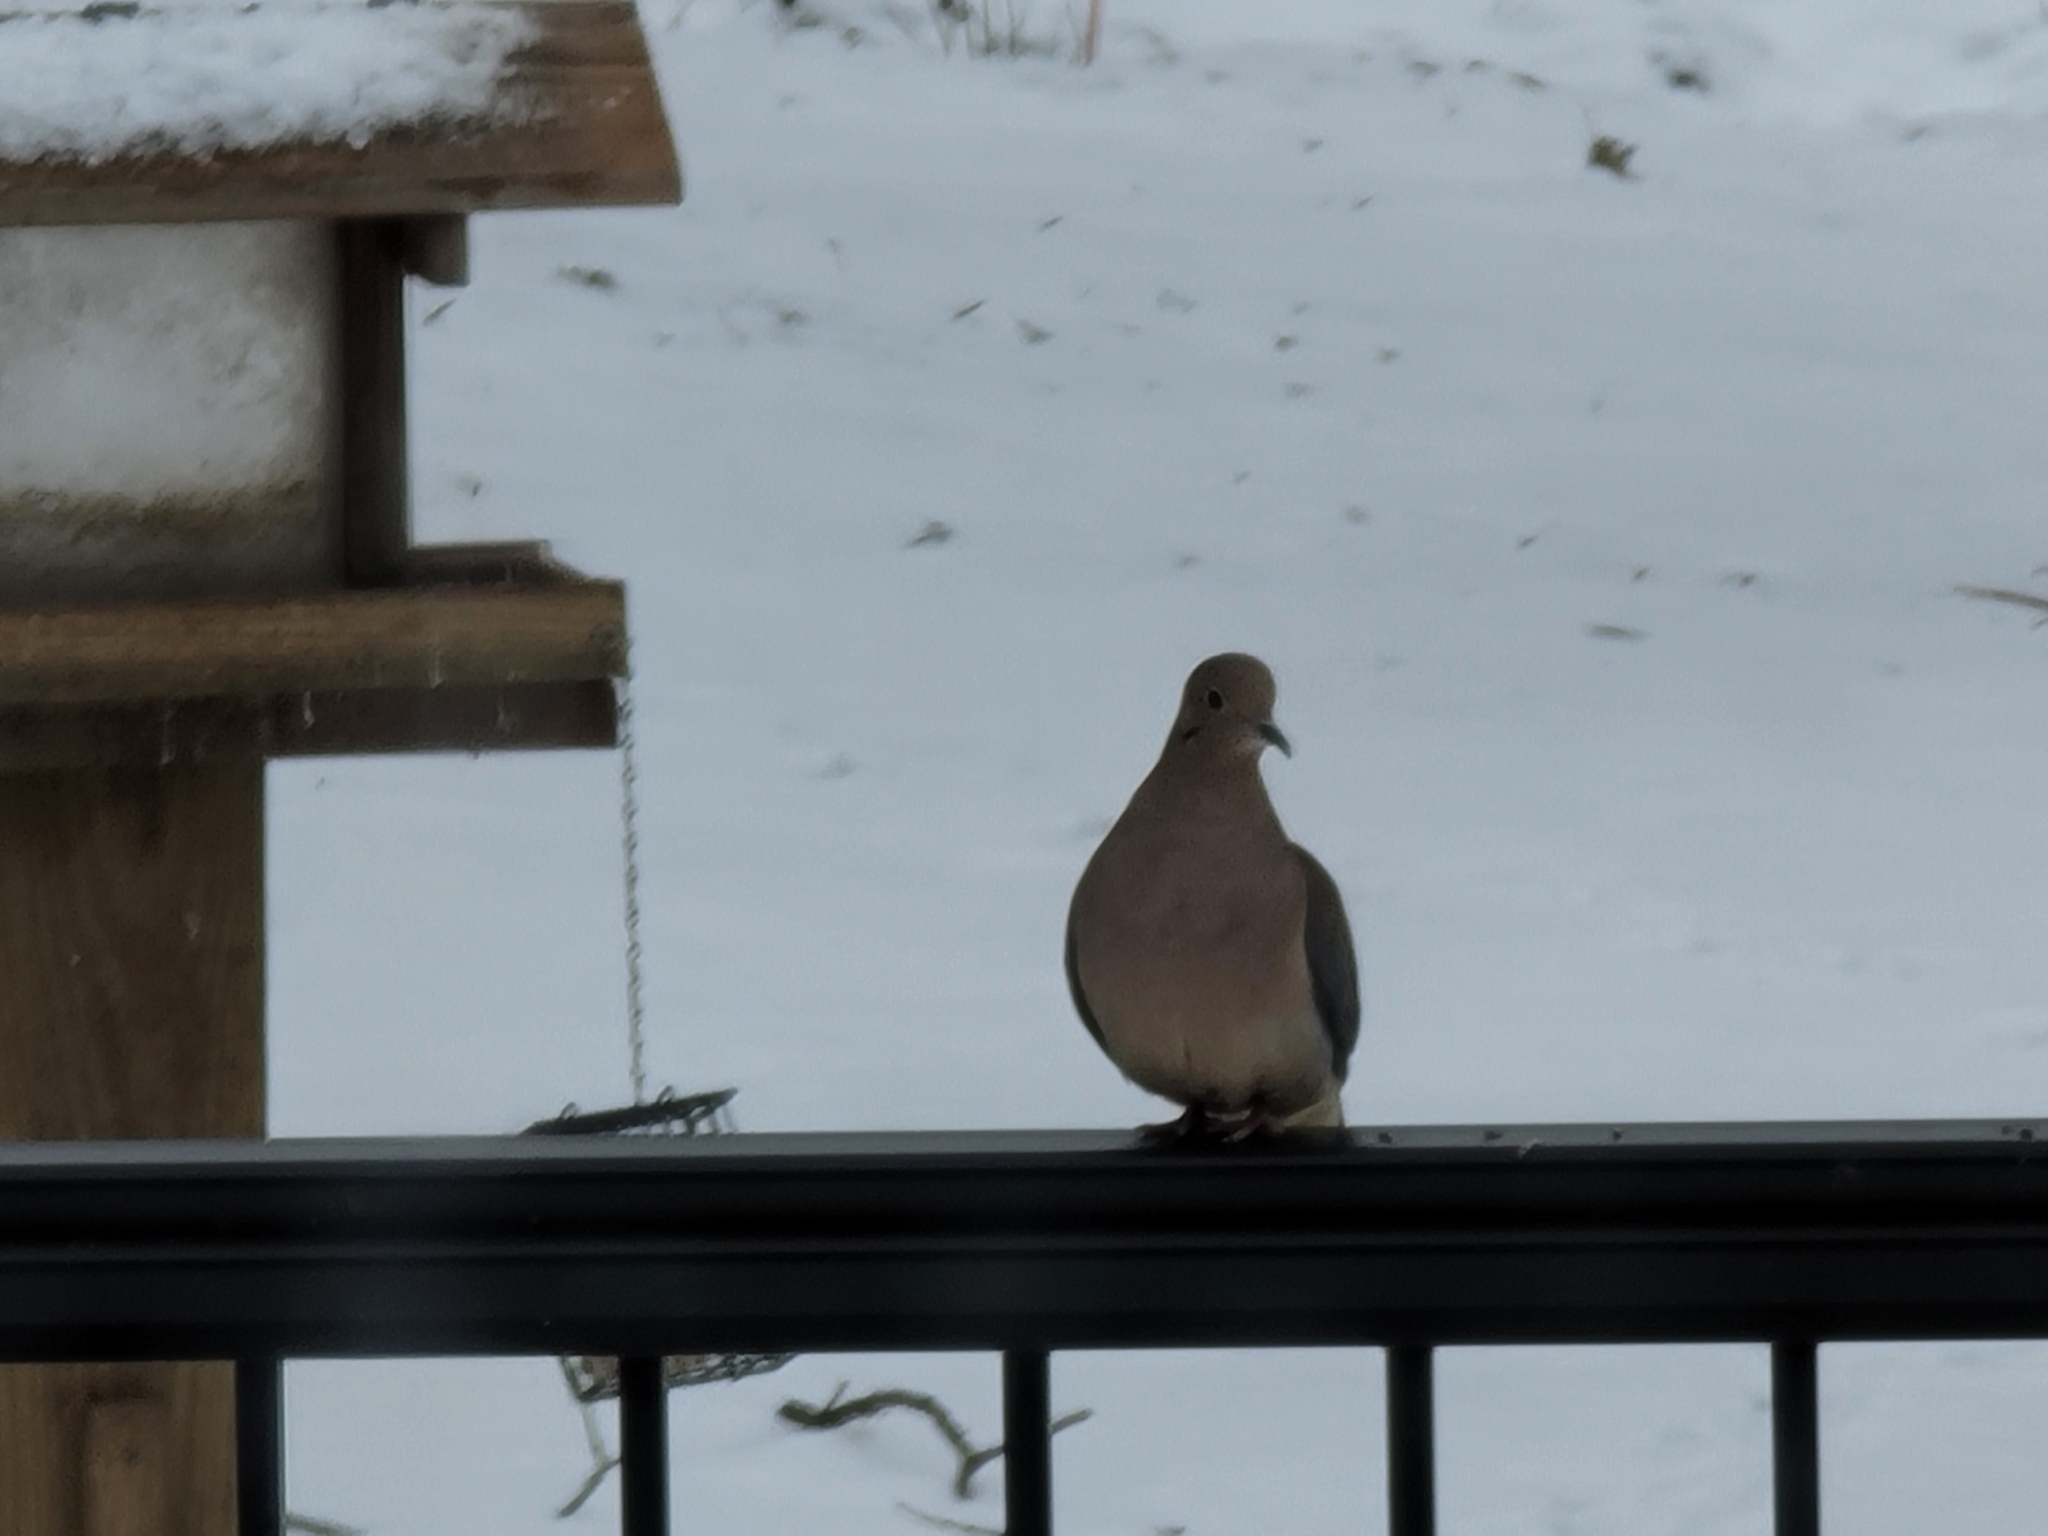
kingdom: Animalia
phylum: Chordata
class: Aves
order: Columbiformes
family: Columbidae
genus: Zenaida
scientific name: Zenaida macroura
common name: Mourning dove
